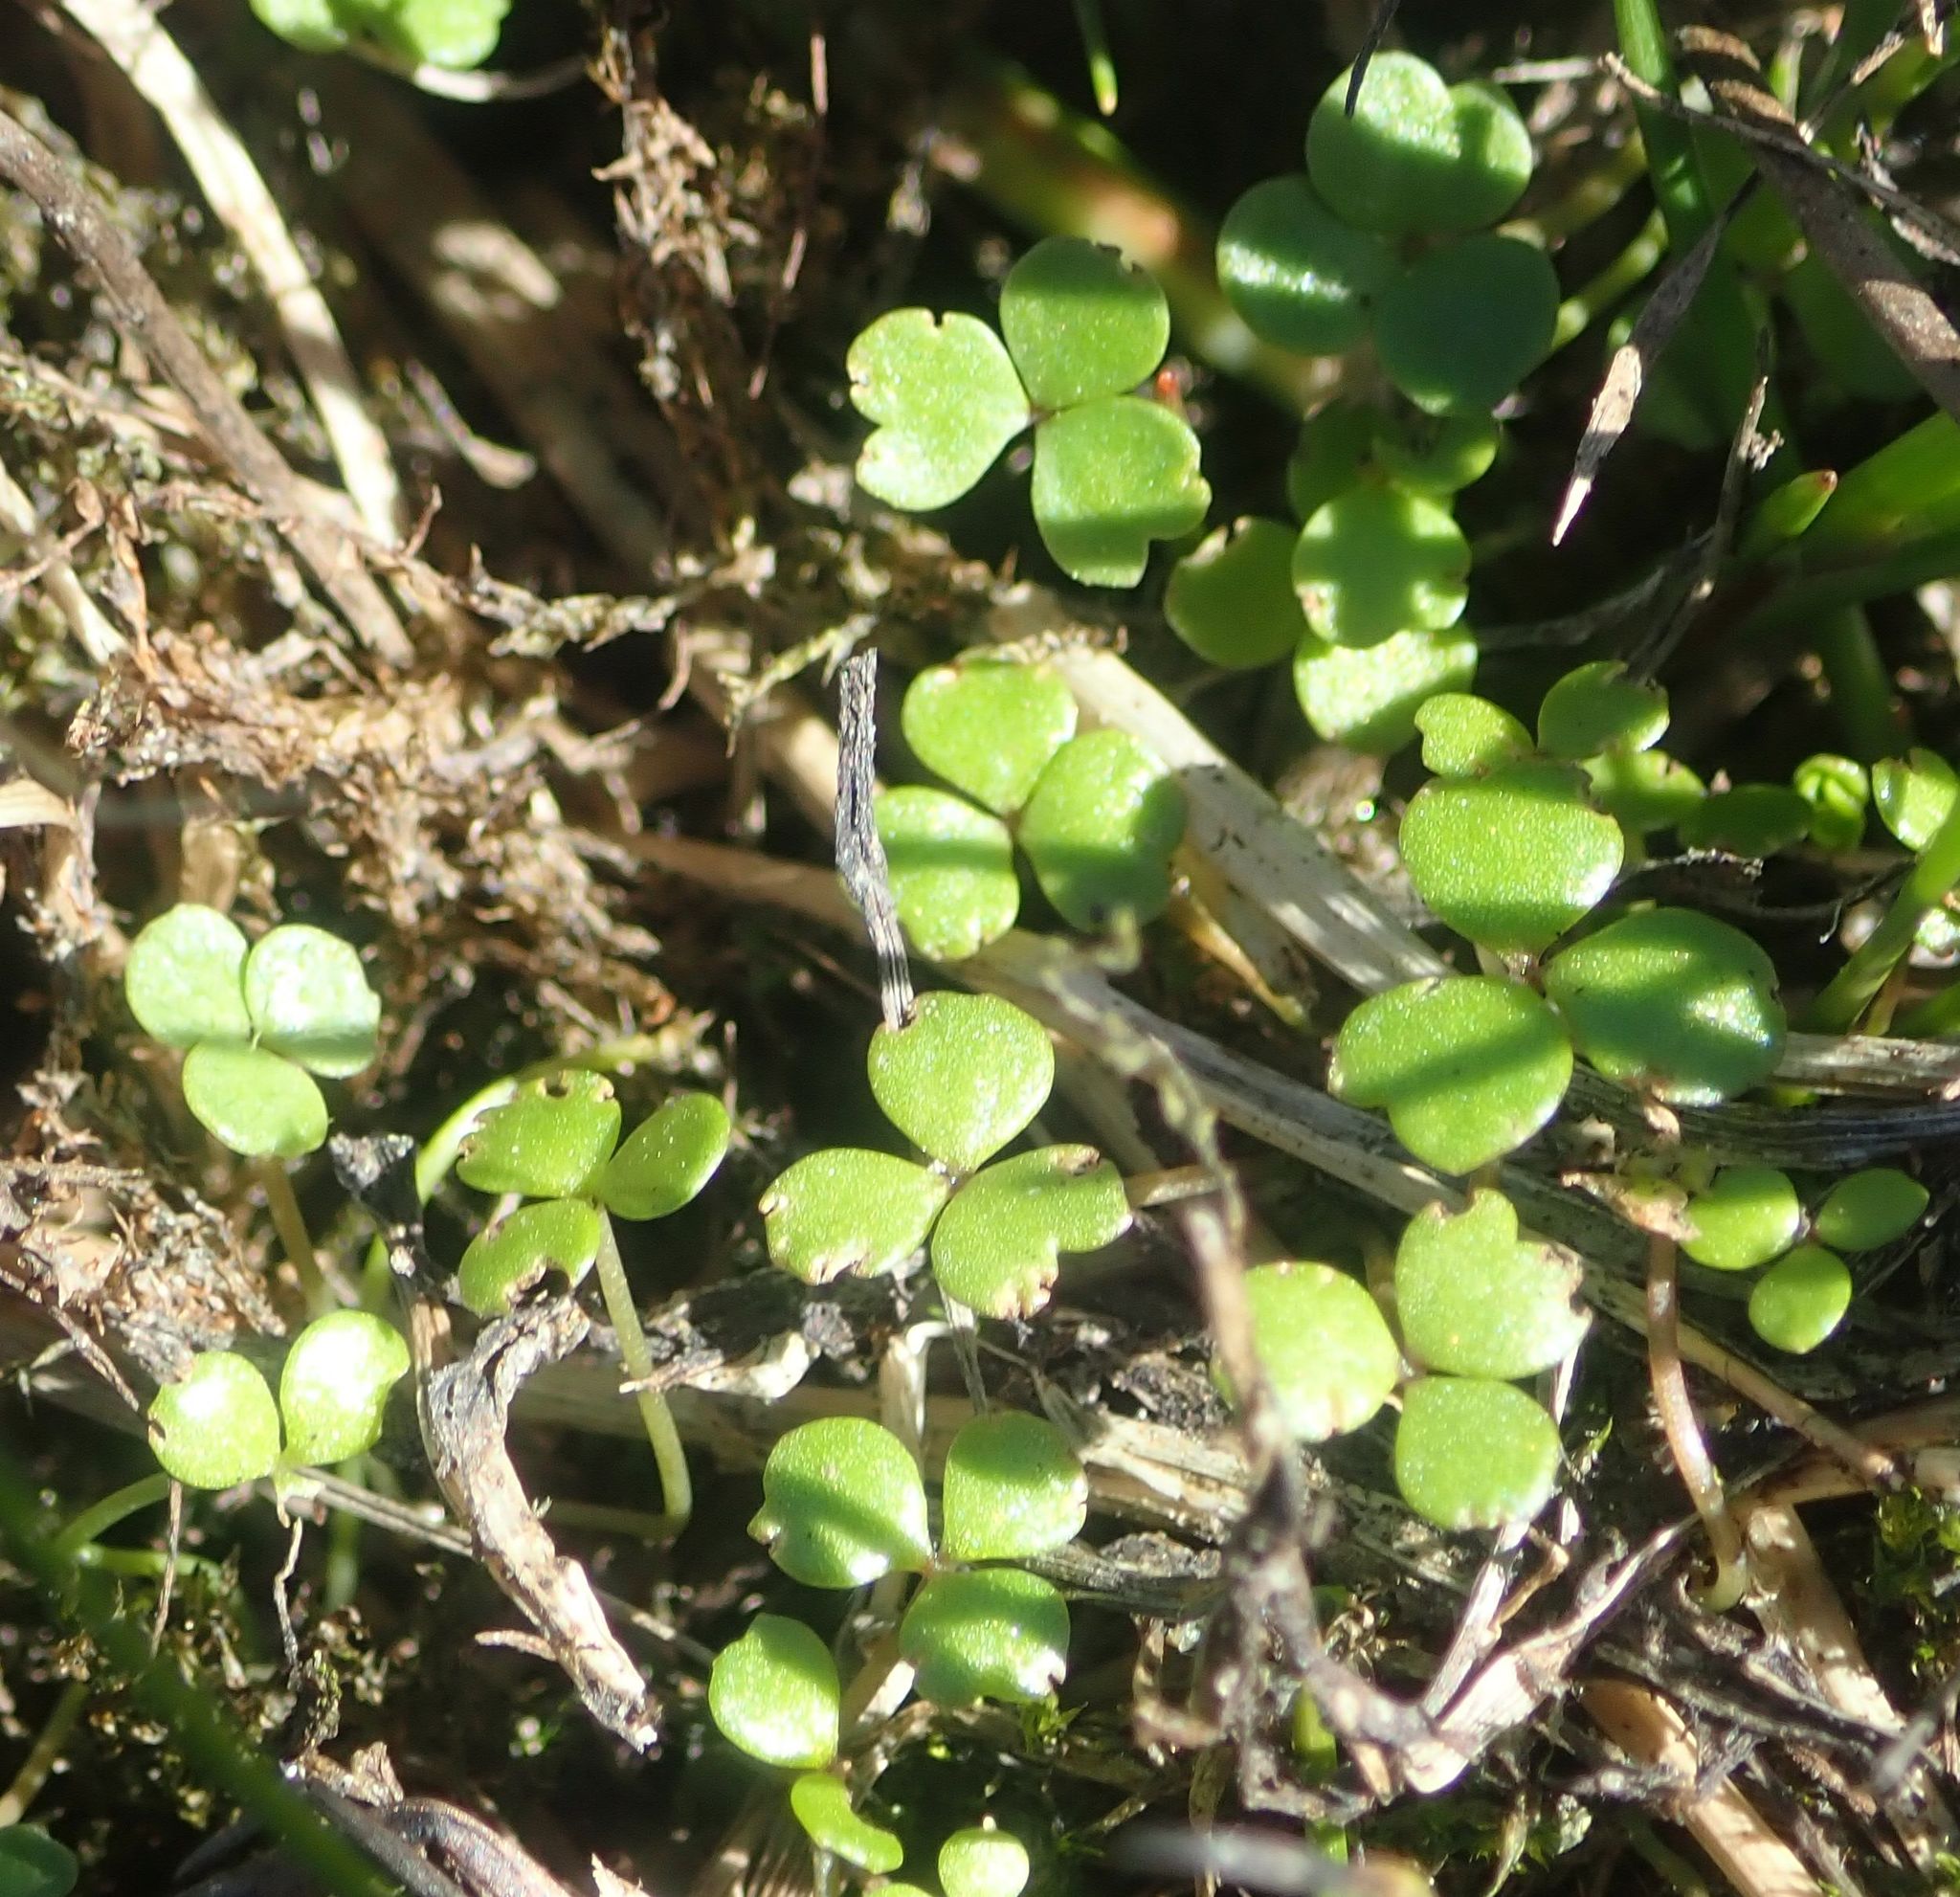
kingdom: Plantae
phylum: Tracheophyta
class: Magnoliopsida
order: Apiales
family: Araliaceae
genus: Hydrocotyle
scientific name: Hydrocotyle sulcata
